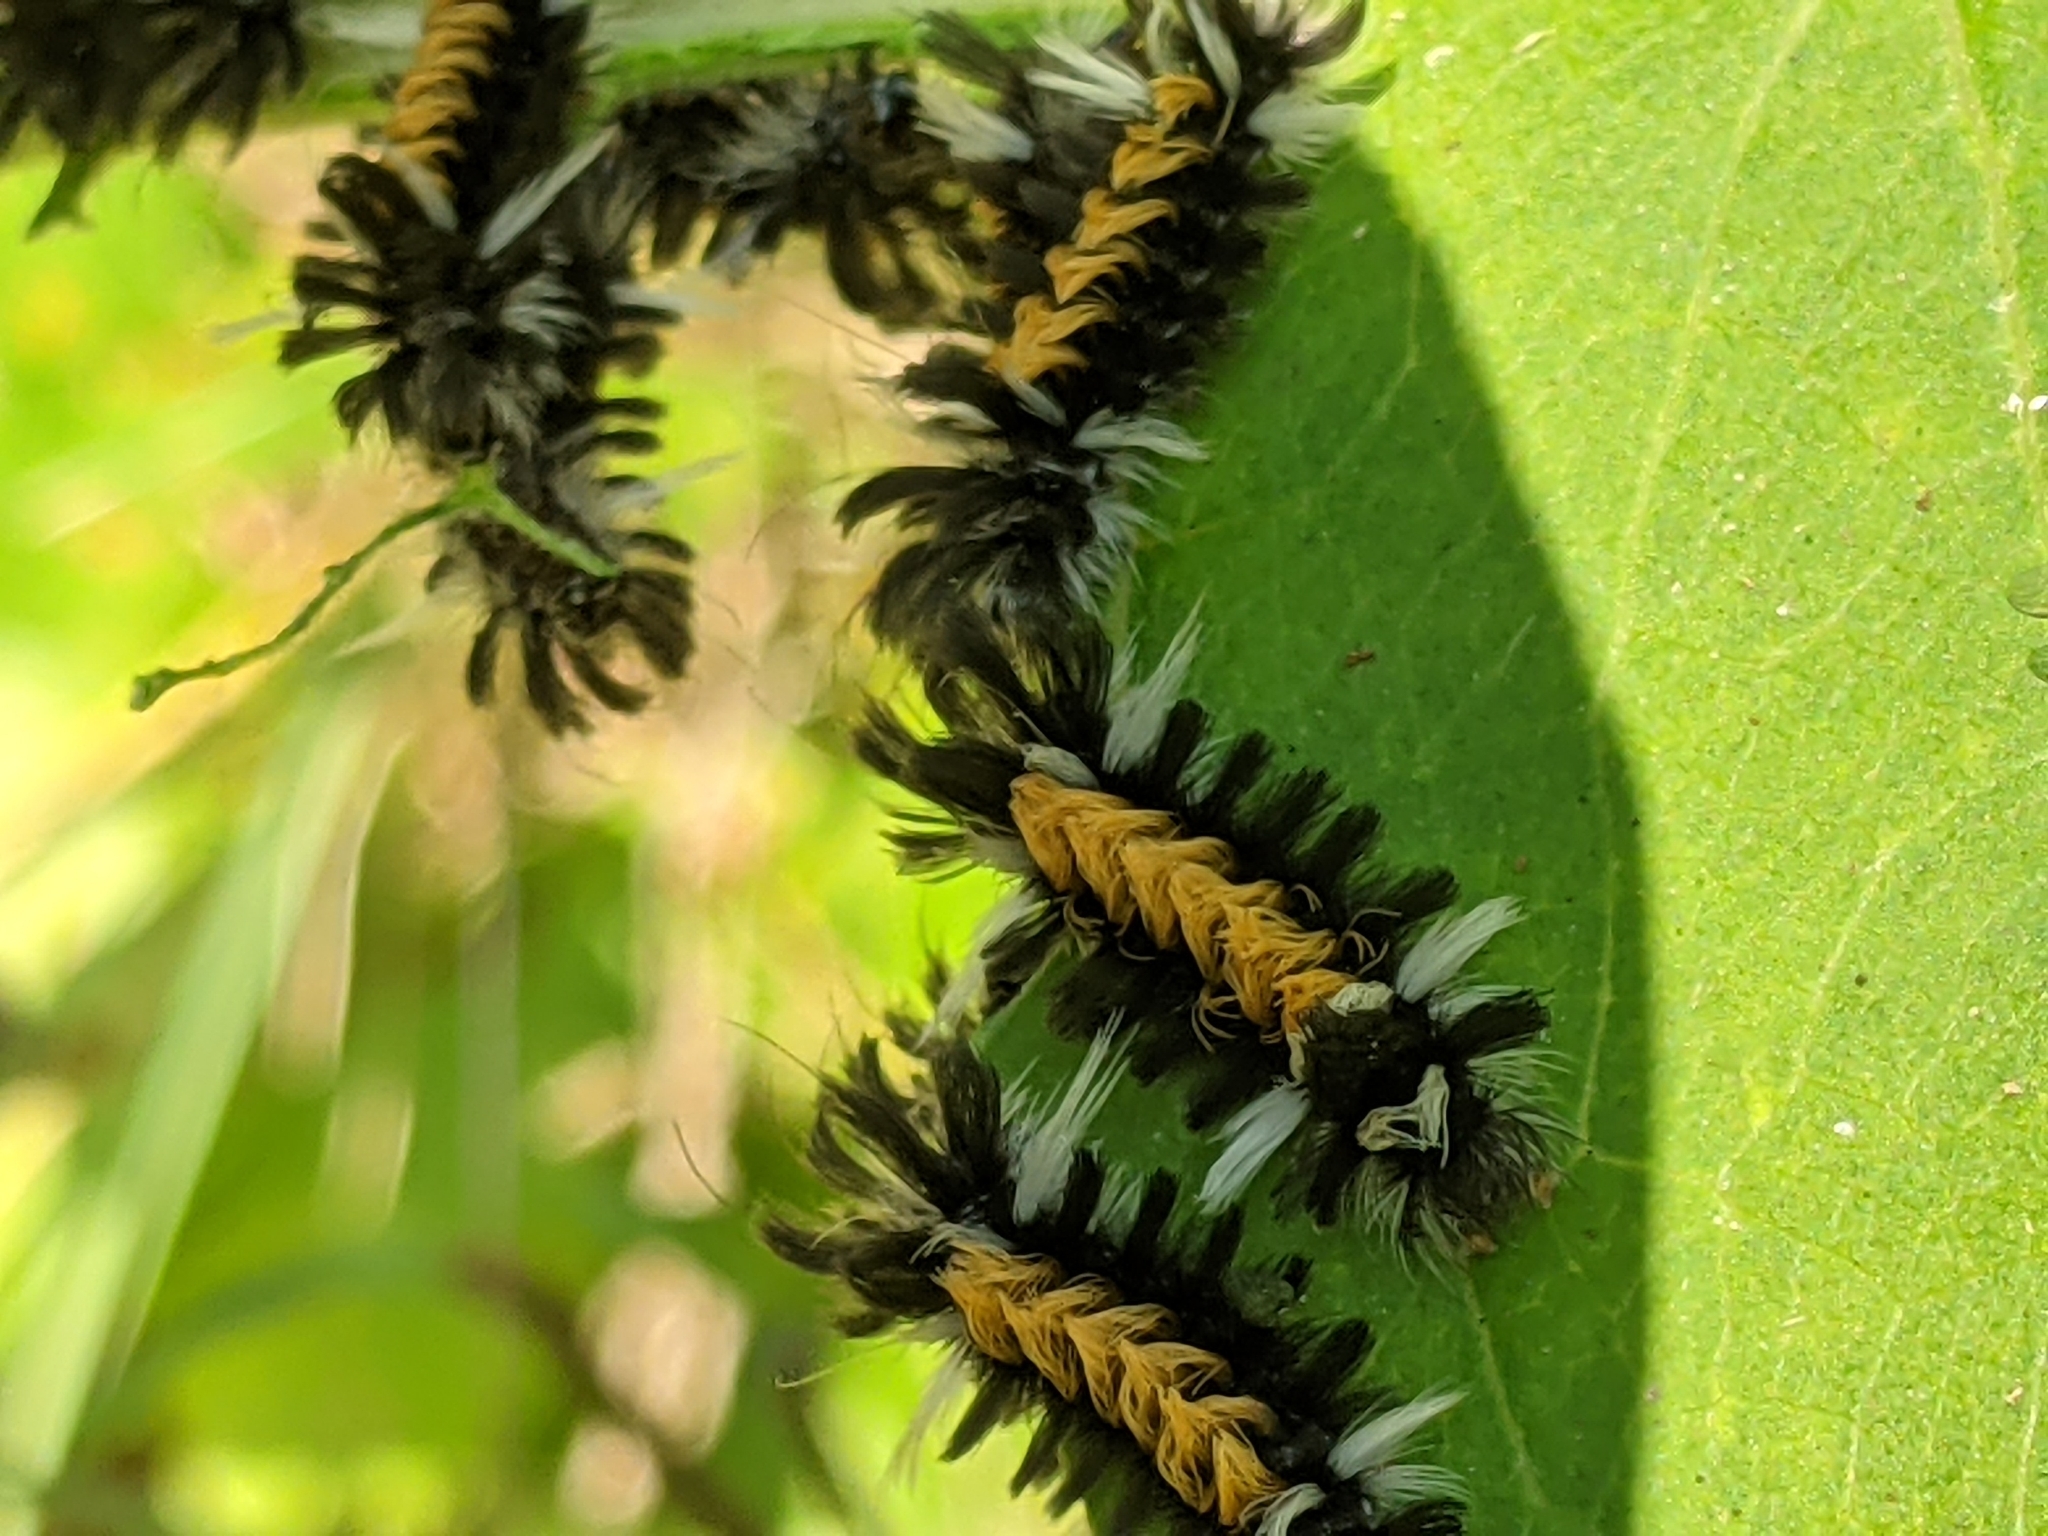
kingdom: Animalia
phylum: Arthropoda
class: Insecta
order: Lepidoptera
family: Erebidae
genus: Euchaetes
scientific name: Euchaetes egle
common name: Milkweed tussock moth
